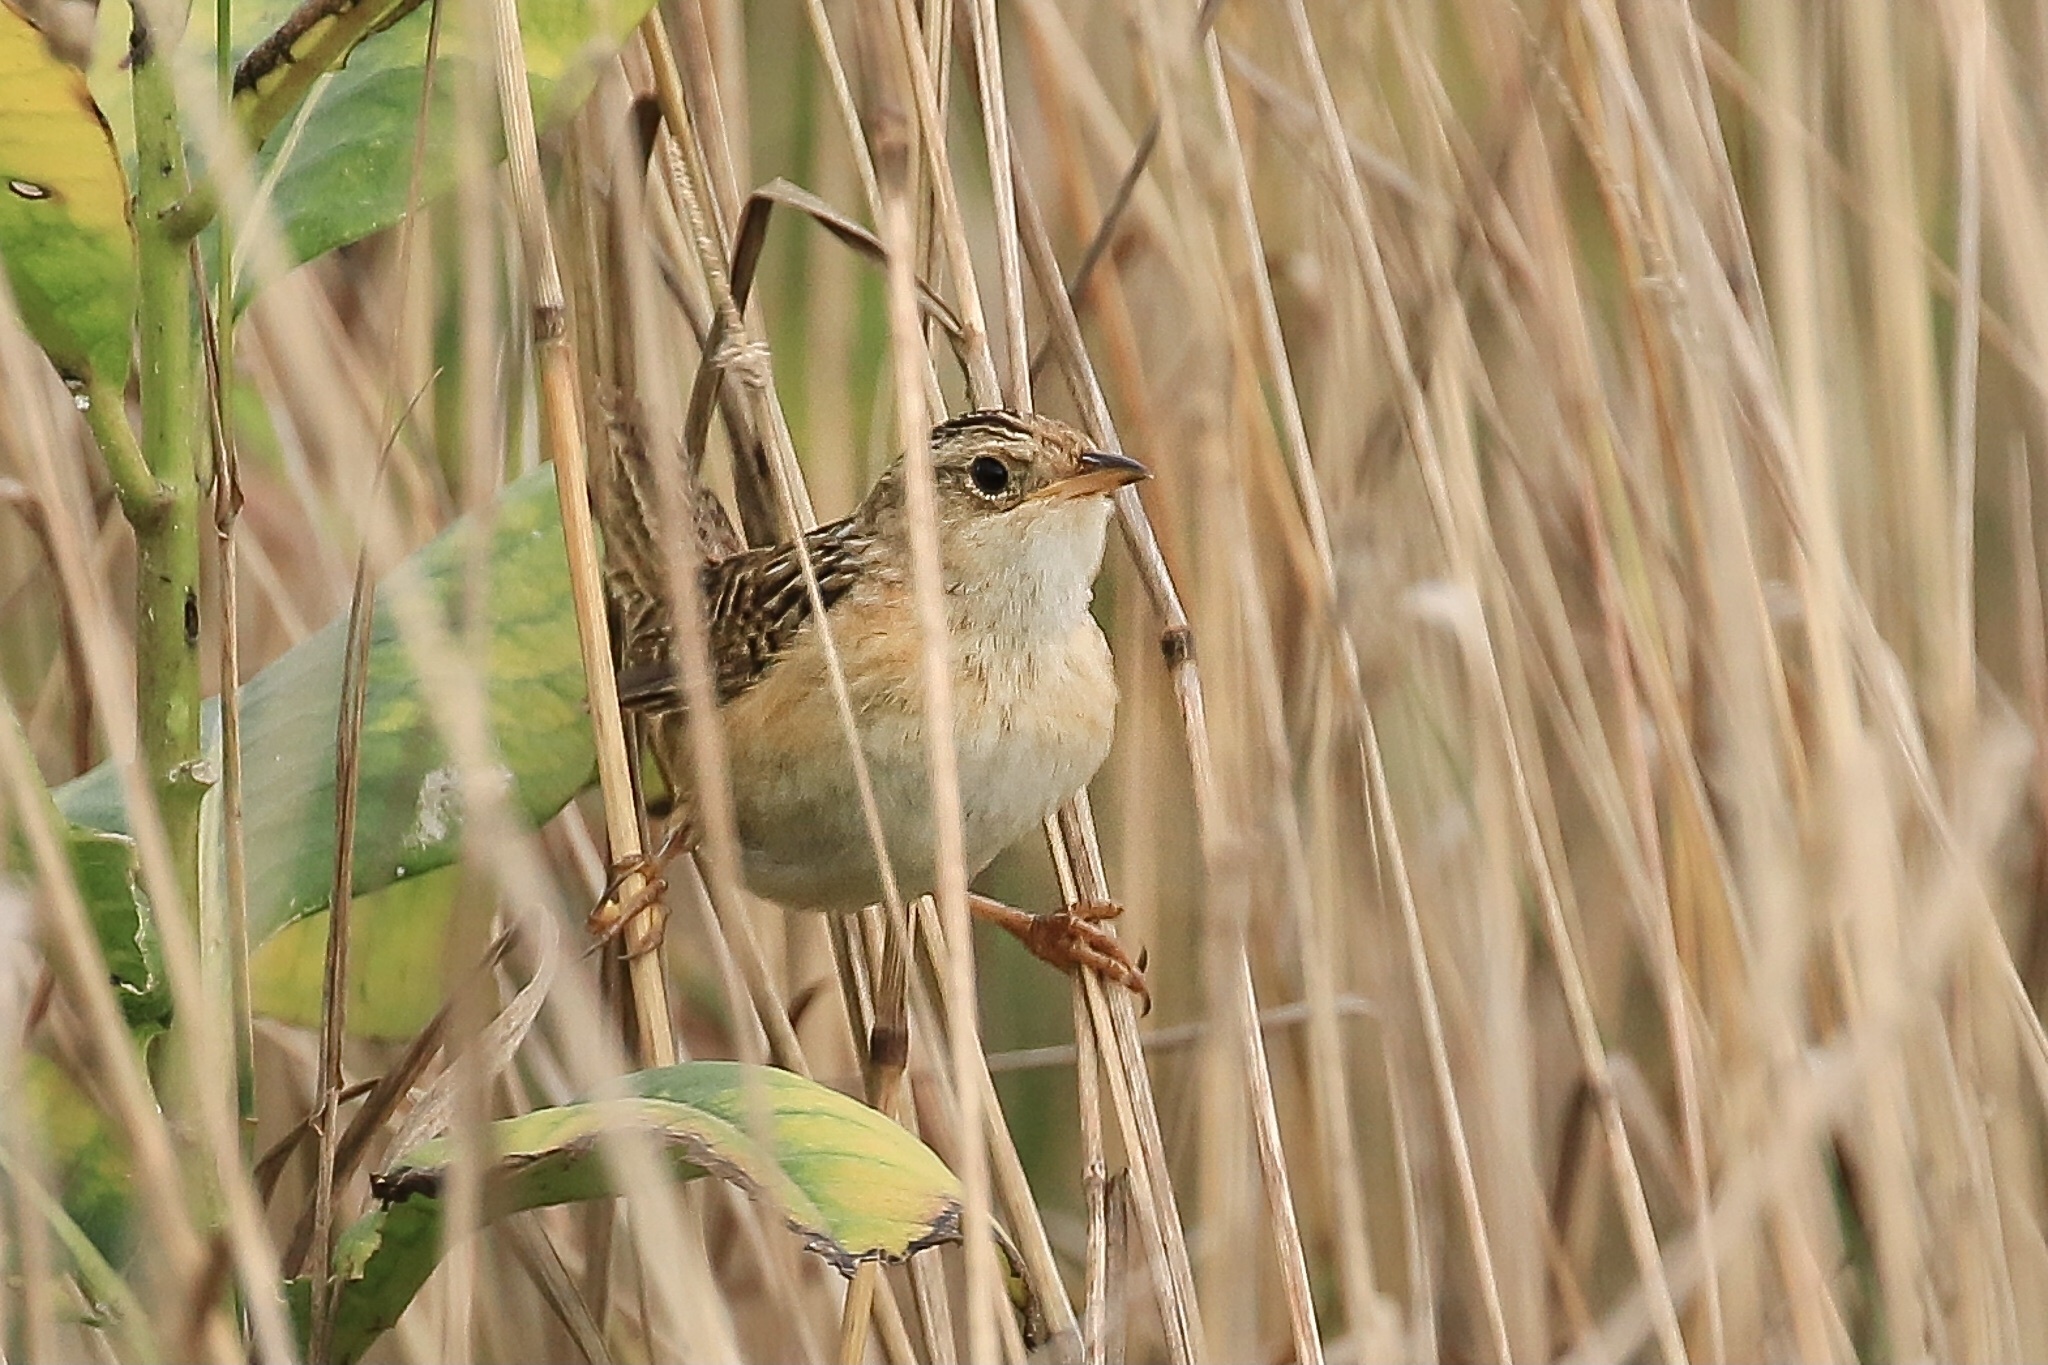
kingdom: Animalia
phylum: Chordata
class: Aves
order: Passeriformes
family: Troglodytidae
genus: Cistothorus
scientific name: Cistothorus platensis
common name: Sedge wren
